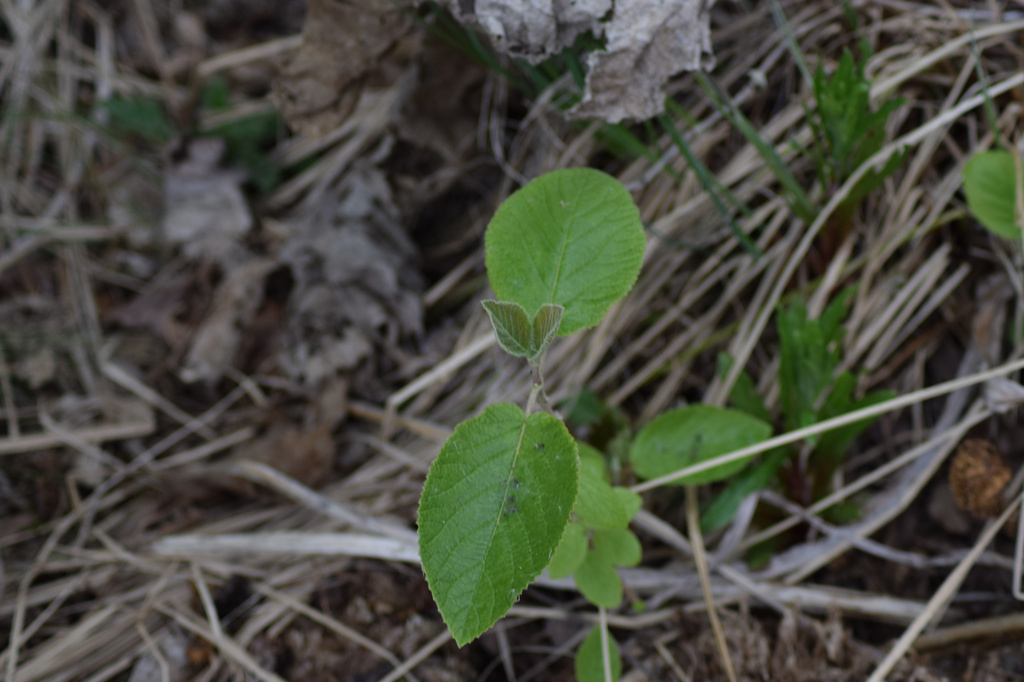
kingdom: Plantae
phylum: Tracheophyta
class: Magnoliopsida
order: Dipsacales
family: Viburnaceae
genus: Viburnum
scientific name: Viburnum lantana
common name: Wayfaring tree
